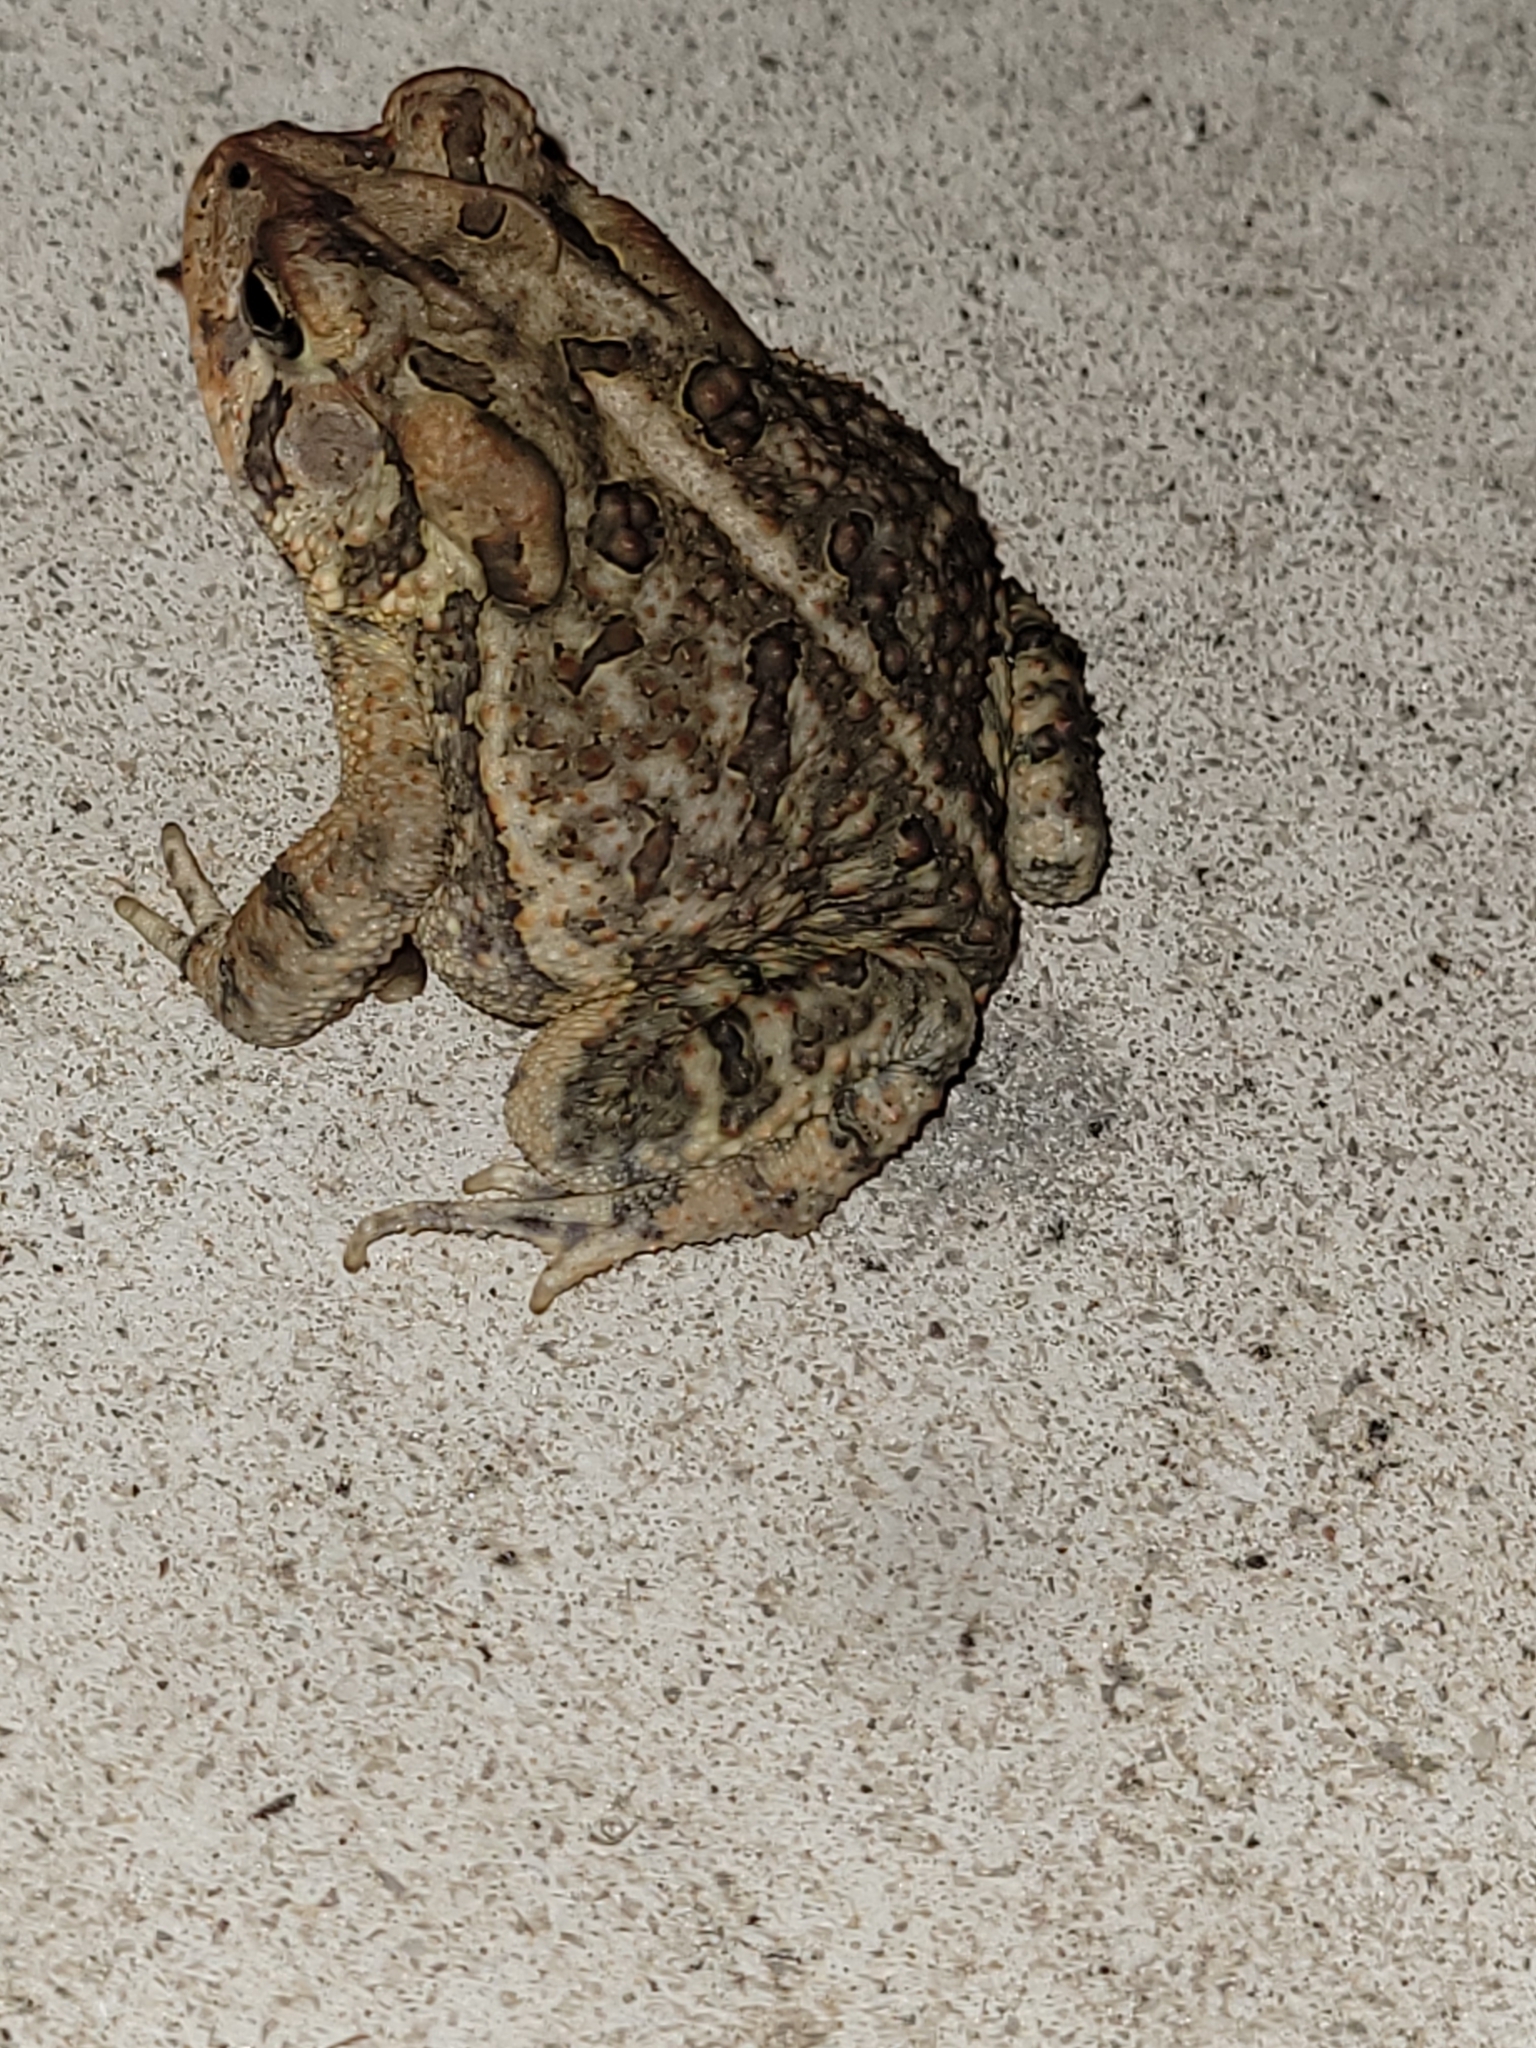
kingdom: Animalia
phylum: Chordata
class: Amphibia
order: Anura
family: Bufonidae
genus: Anaxyrus
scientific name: Anaxyrus terrestris
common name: Southern toad
